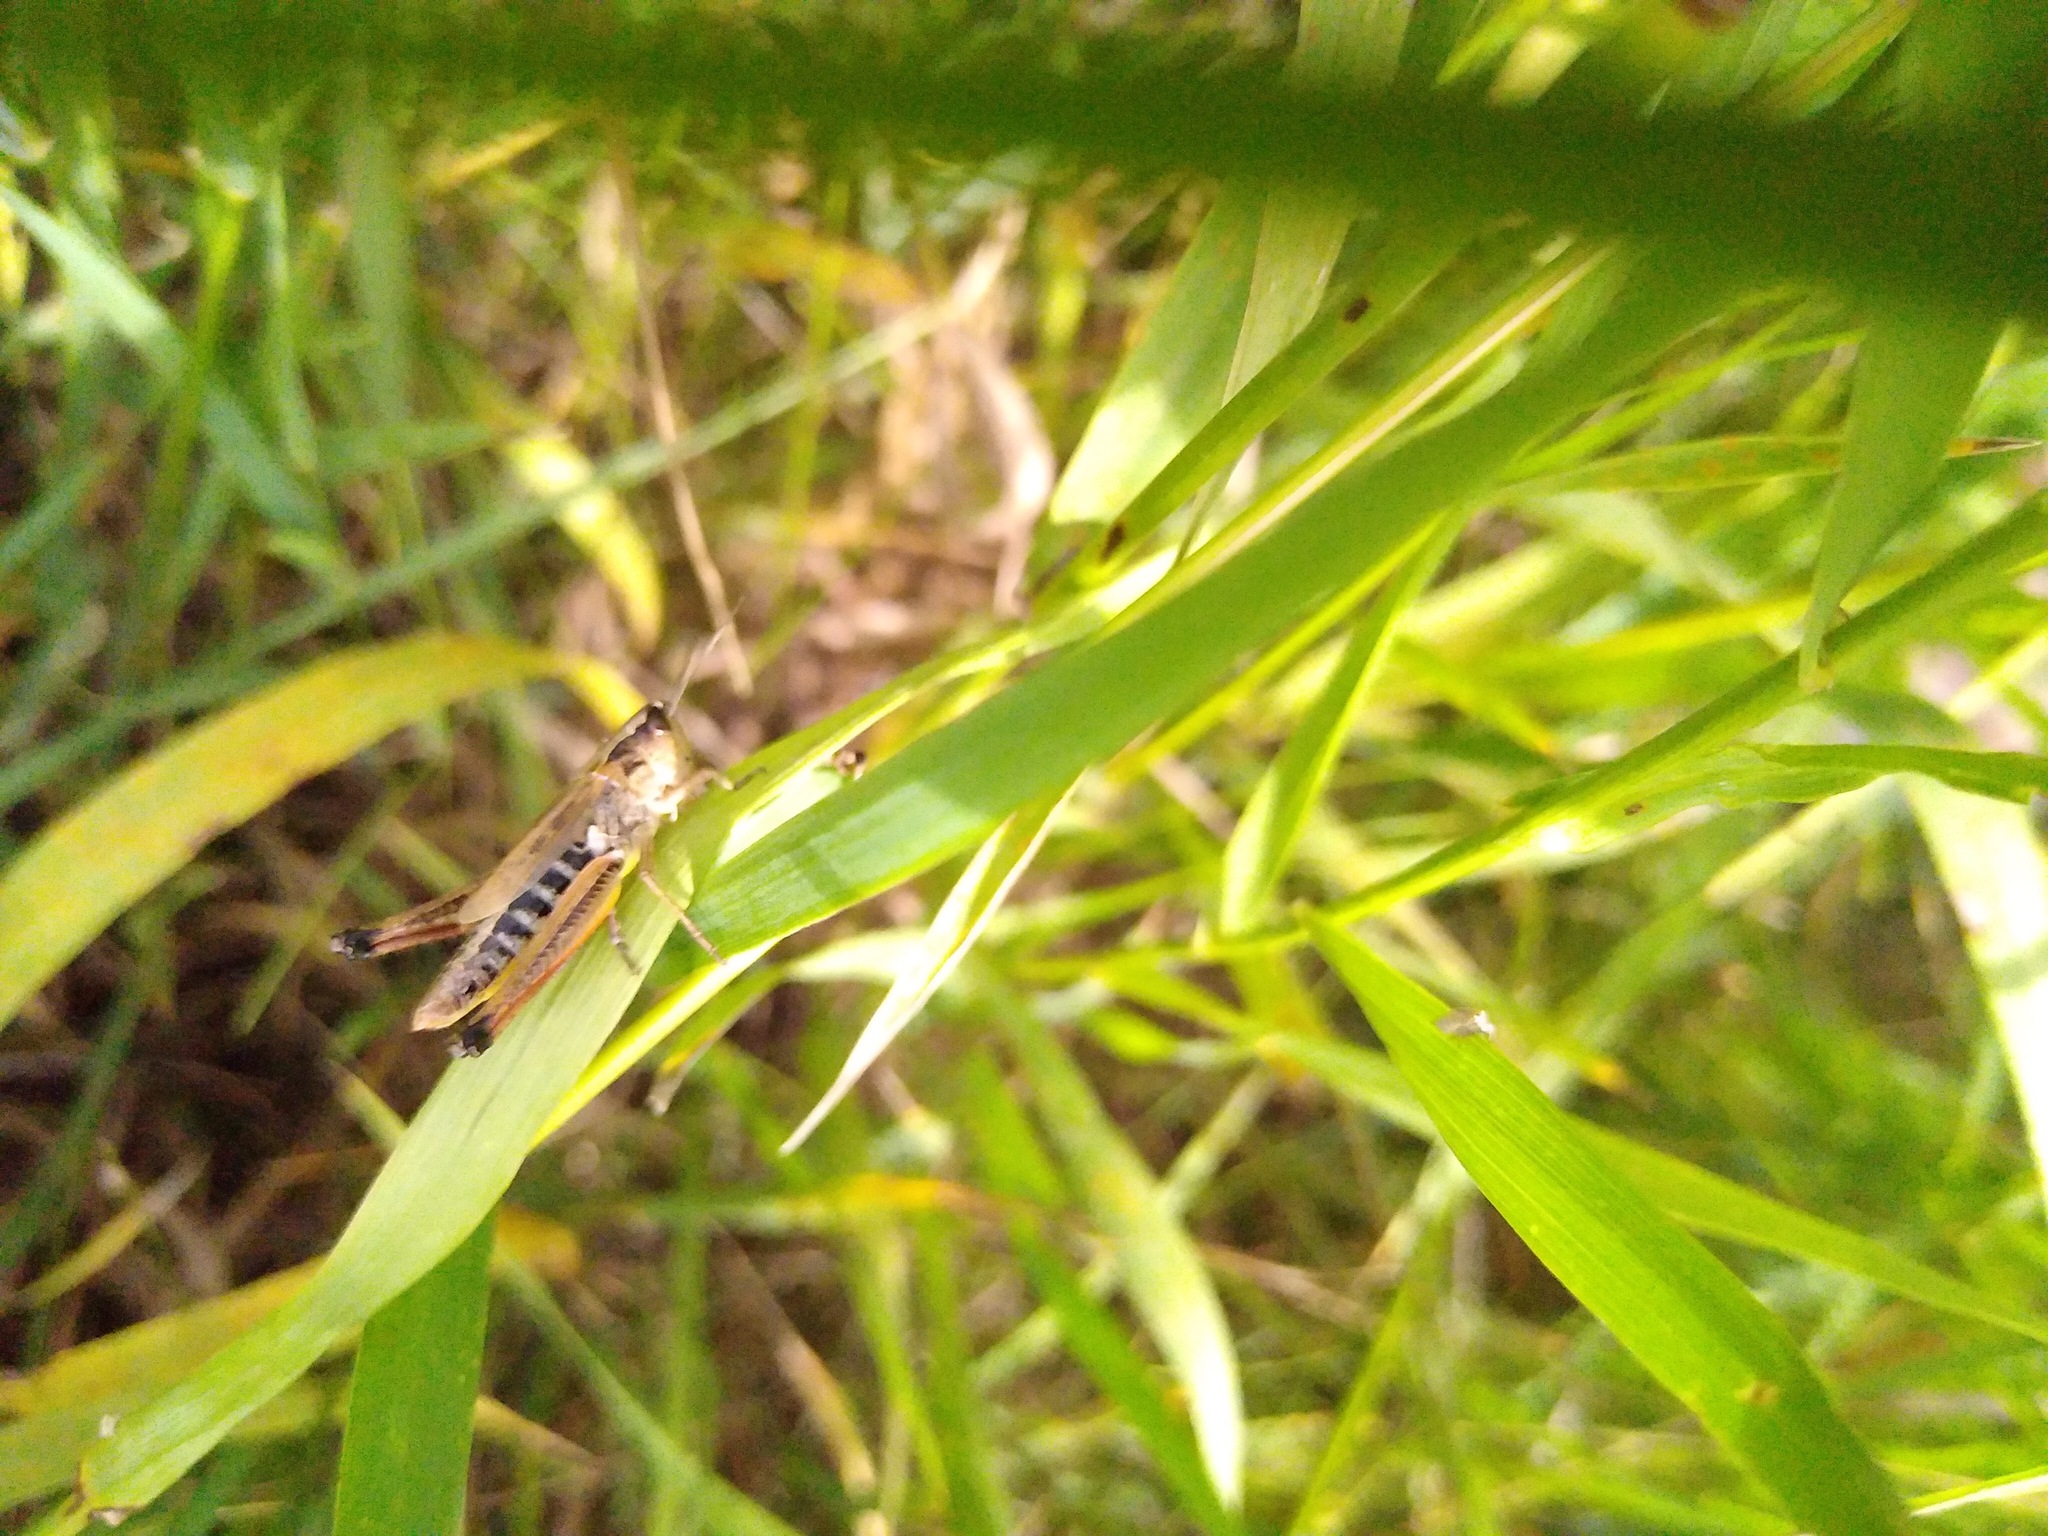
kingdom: Animalia
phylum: Arthropoda
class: Insecta
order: Orthoptera
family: Acrididae
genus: Pseudochorthippus
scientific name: Pseudochorthippus curtipennis
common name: Marsh meadow grasshopper
